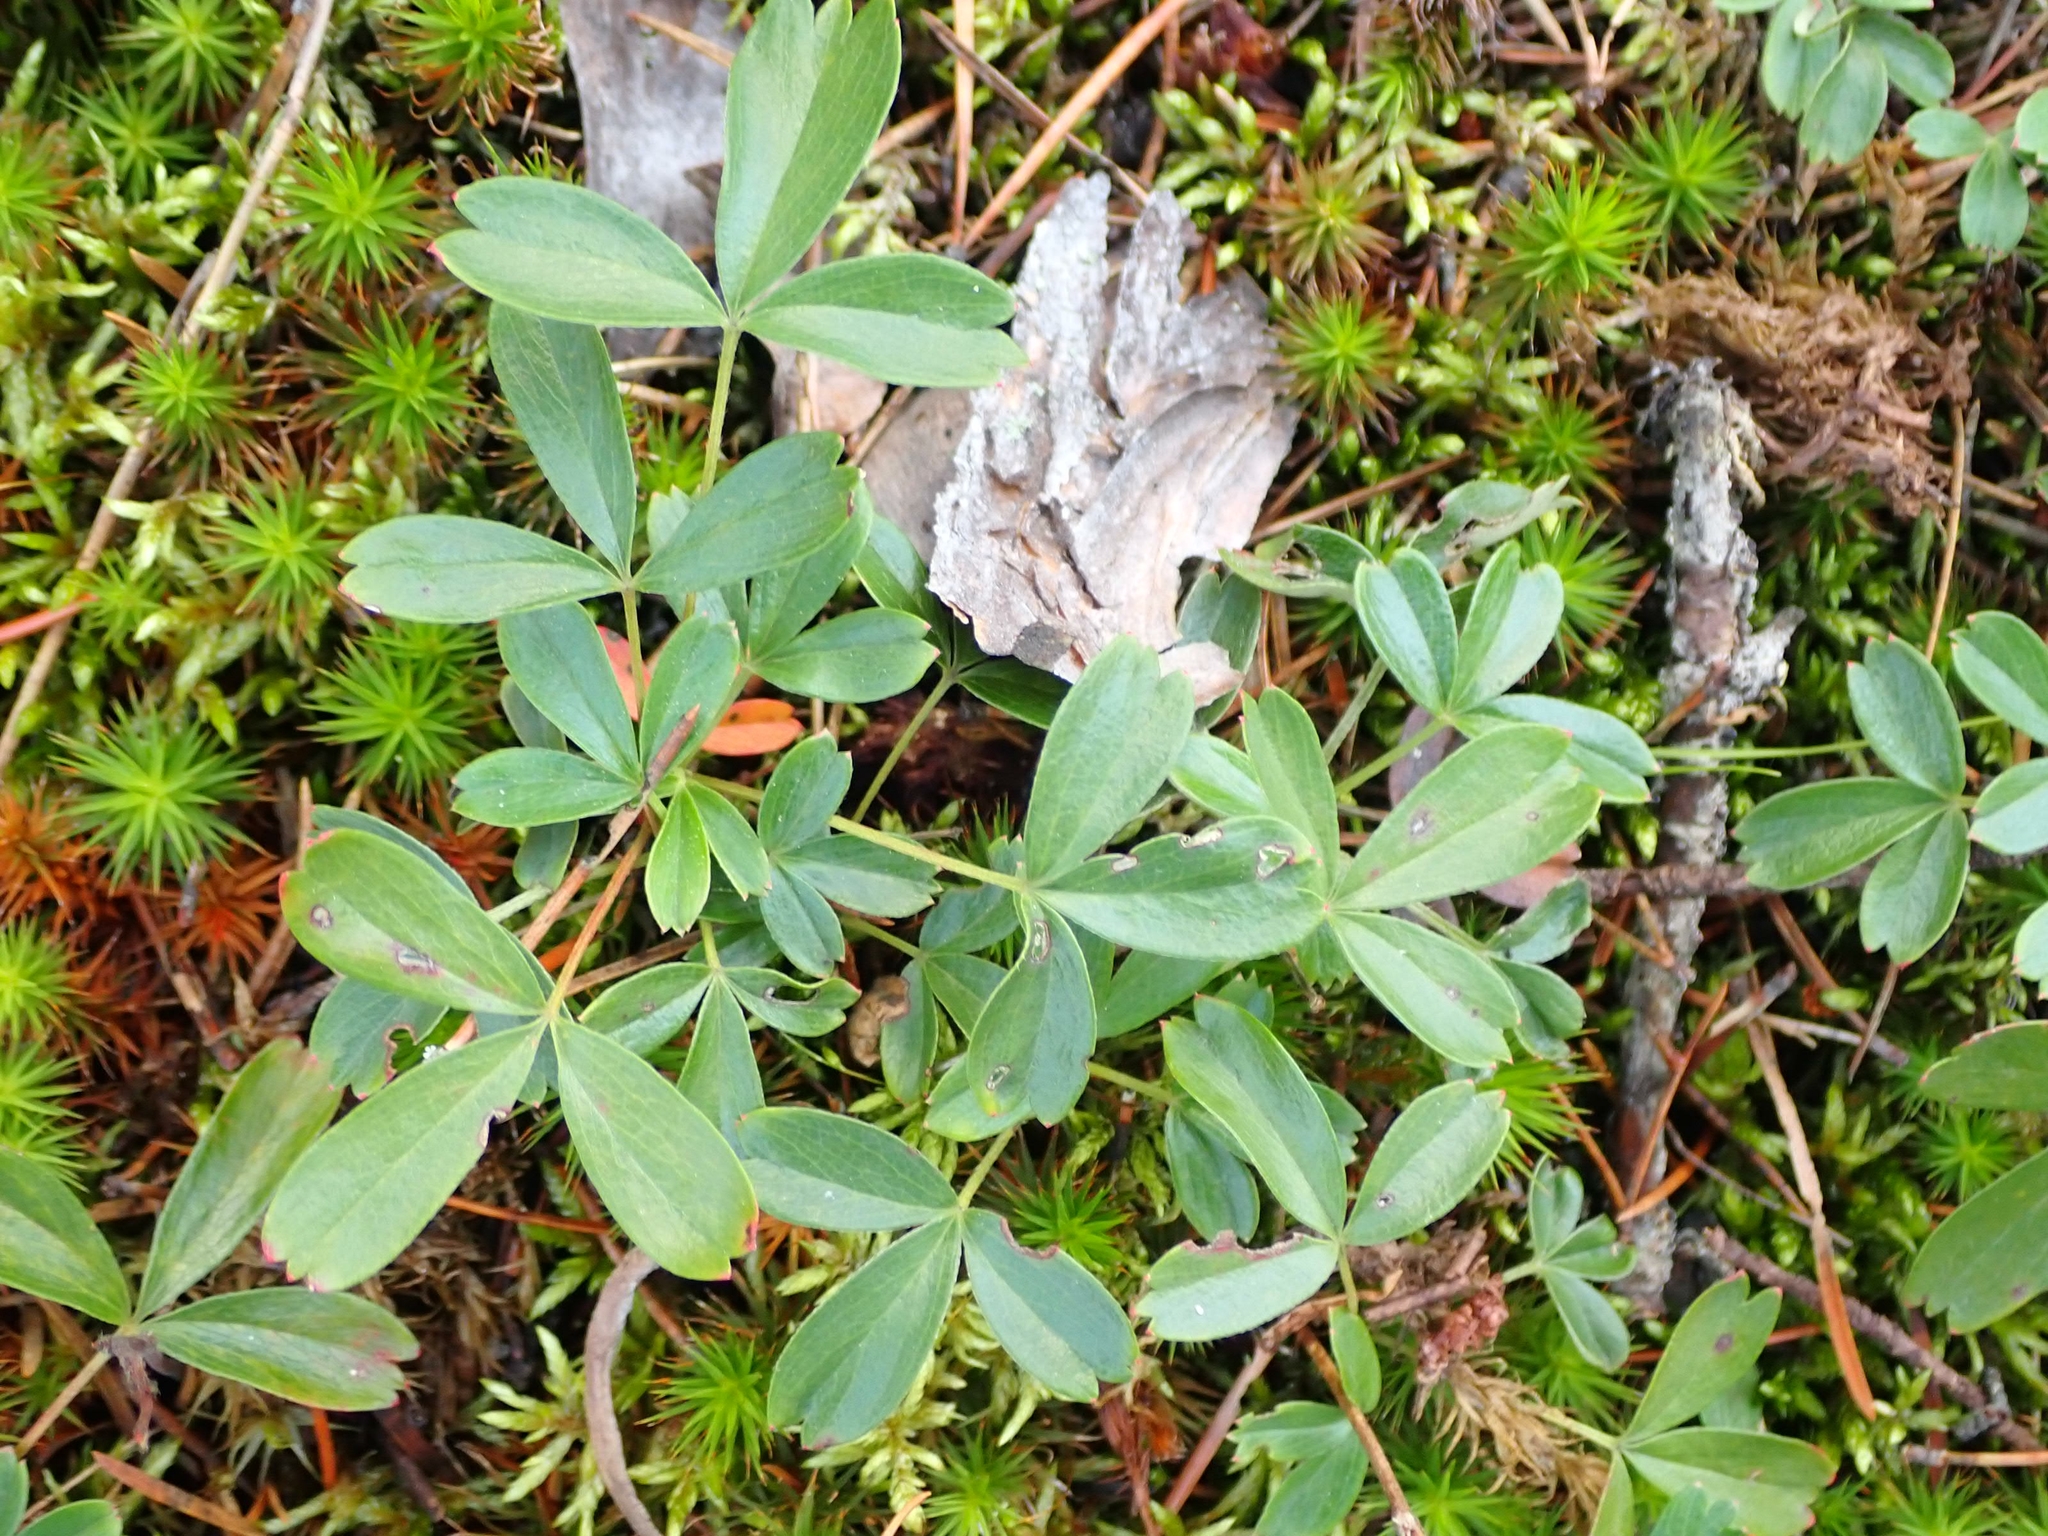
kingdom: Plantae
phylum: Tracheophyta
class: Magnoliopsida
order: Rosales
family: Rosaceae
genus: Sibbaldia
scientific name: Sibbaldia tridentata
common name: Three-toothed cinquefoil
